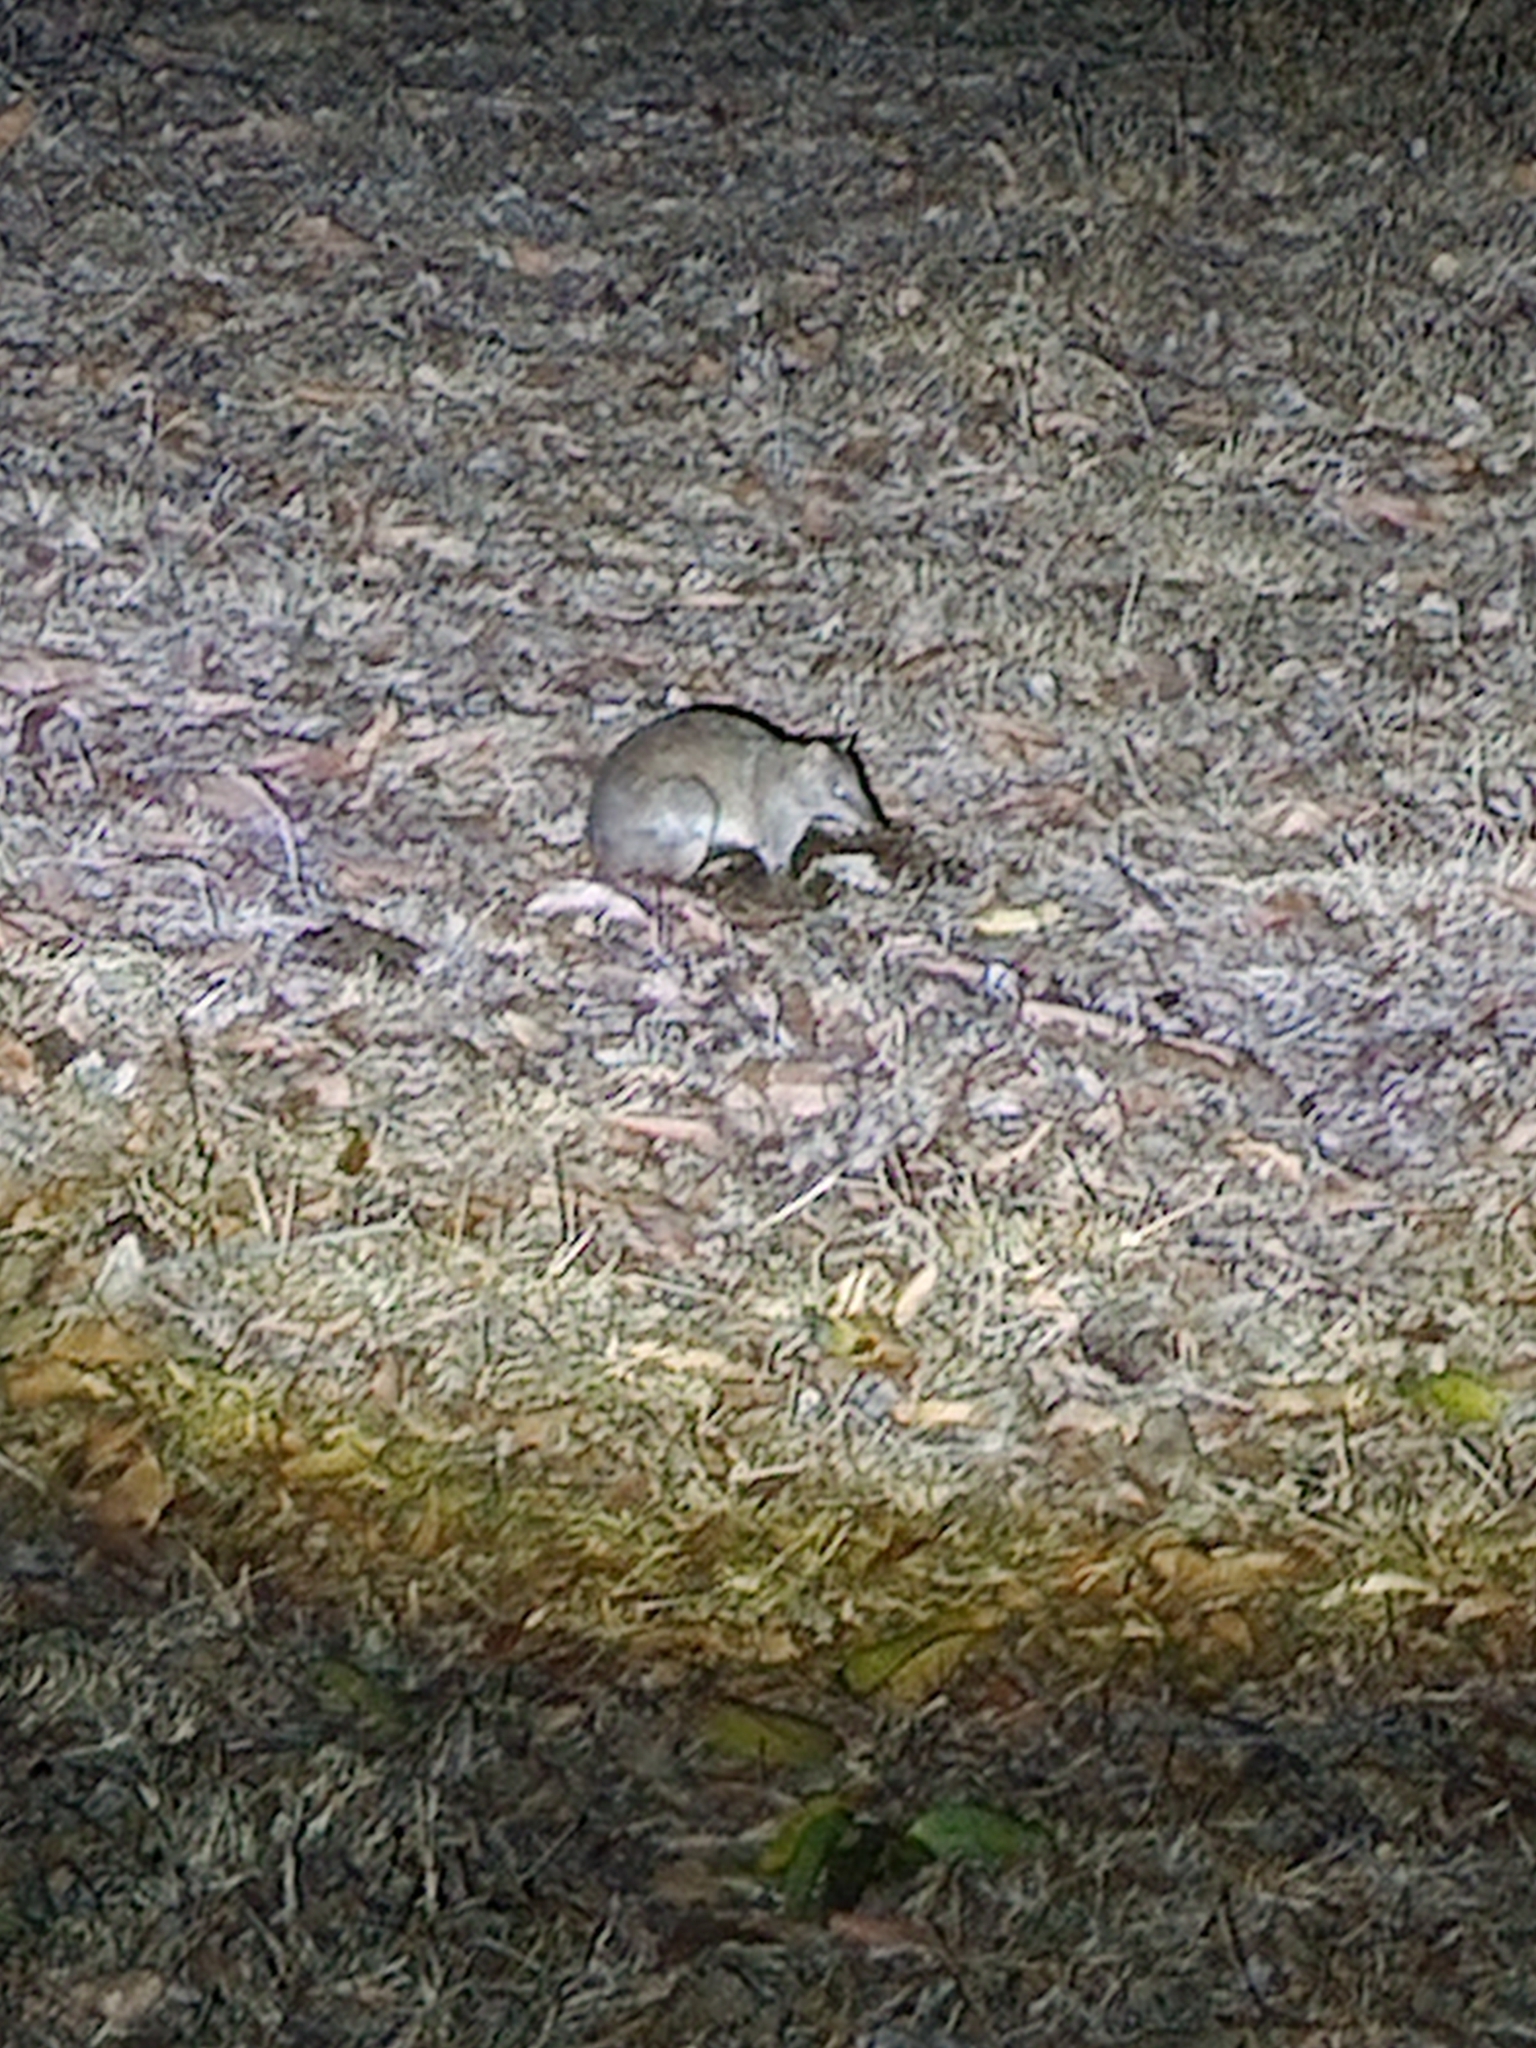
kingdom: Animalia
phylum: Chordata
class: Mammalia
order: Peramelemorphia
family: Peramelidae
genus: Isoodon
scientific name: Isoodon macrourus
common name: Northern brown bandicoot
